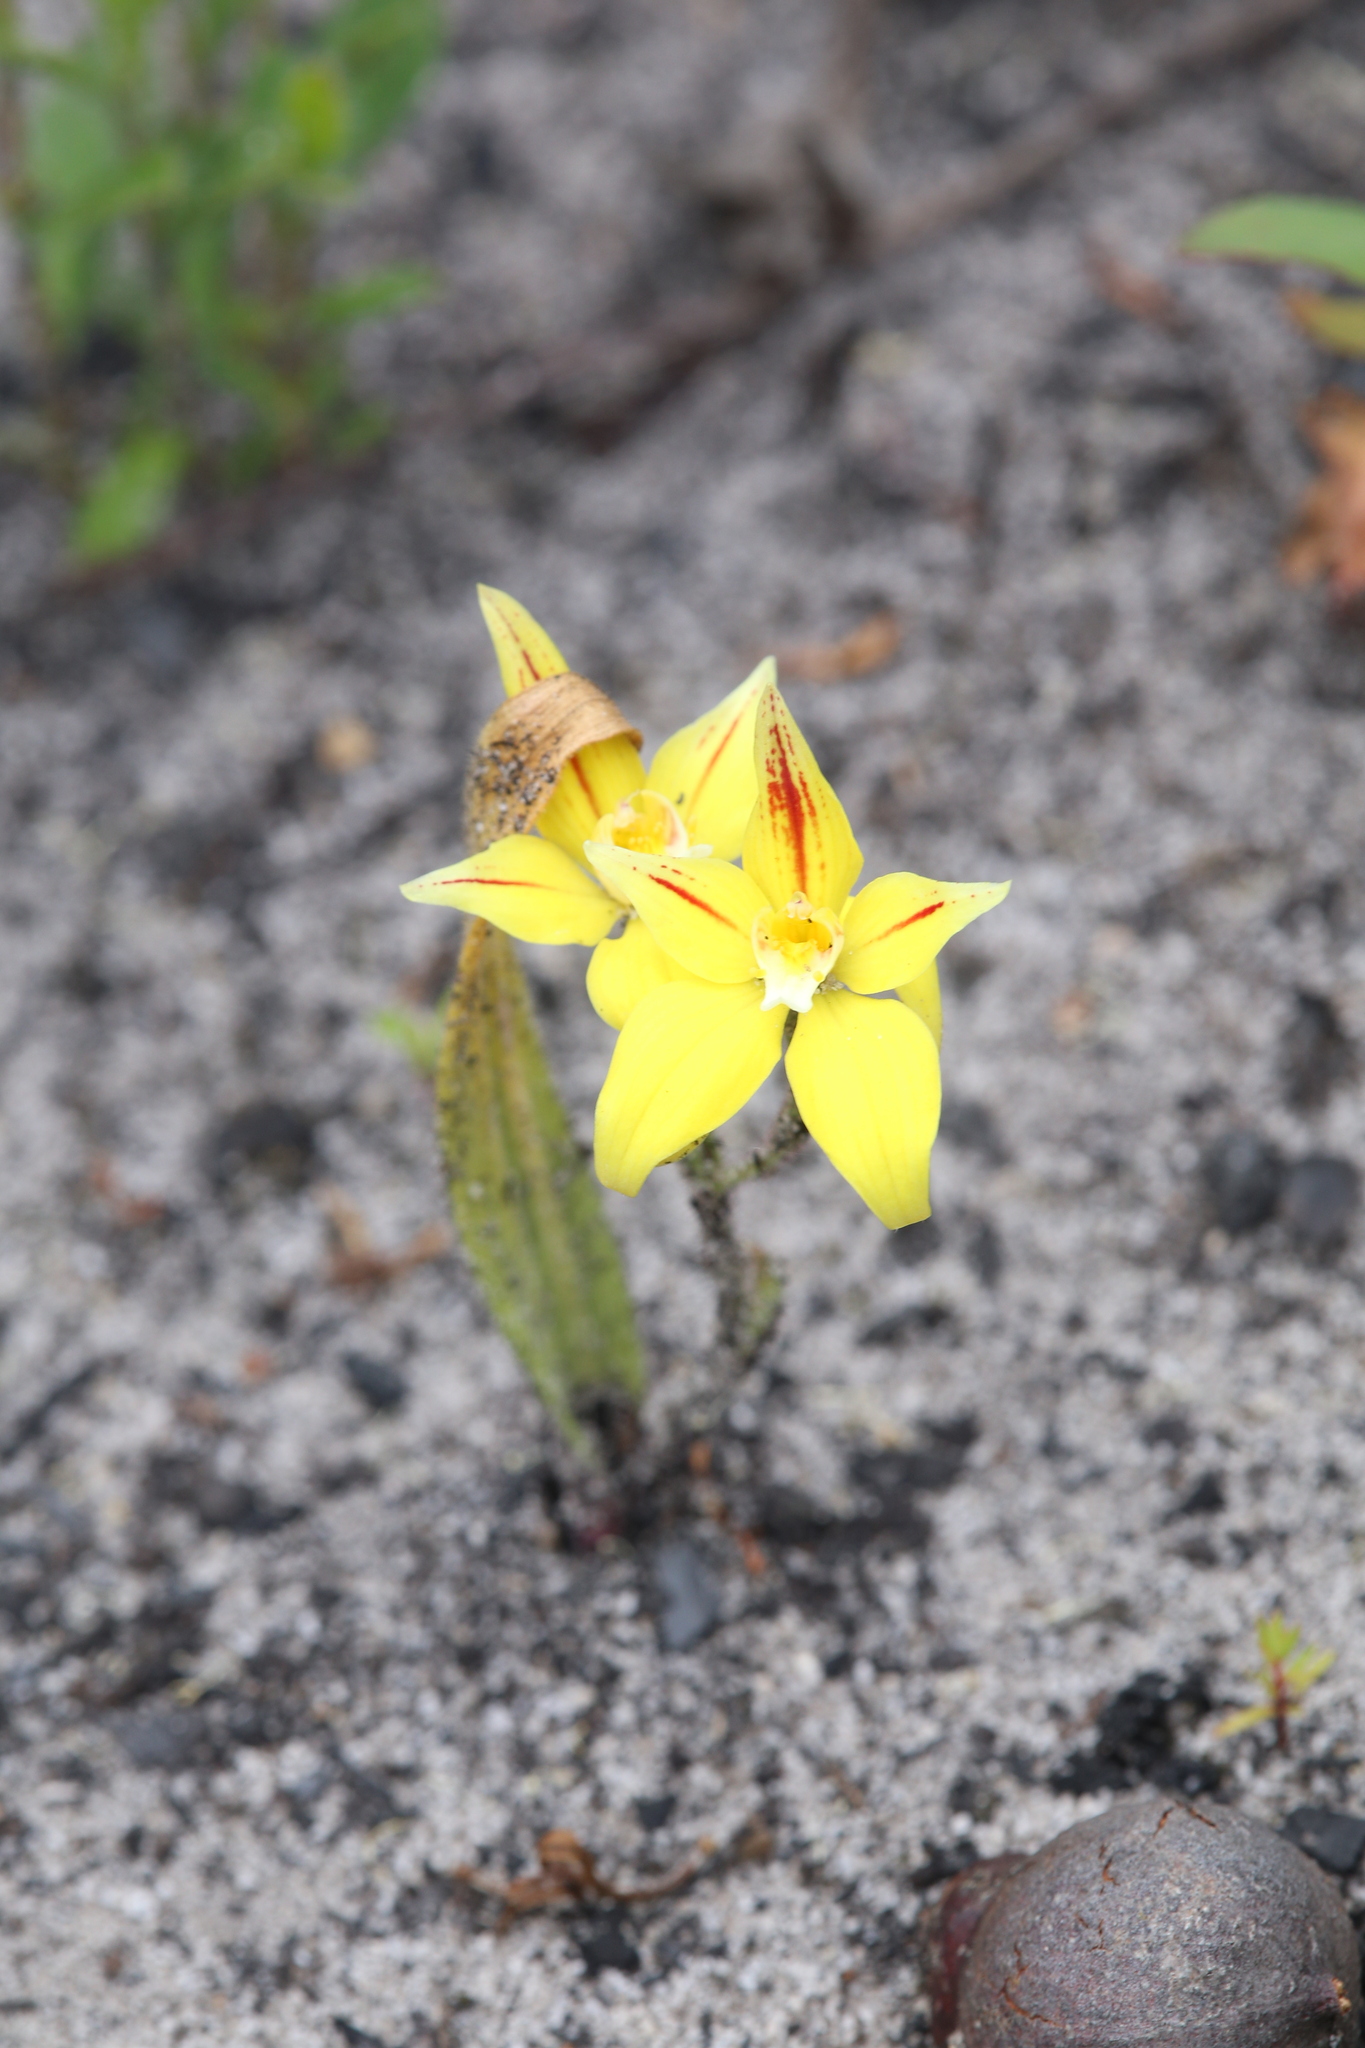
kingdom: Plantae
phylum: Tracheophyta
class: Liliopsida
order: Asparagales
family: Orchidaceae
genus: Caladenia
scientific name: Caladenia flava
